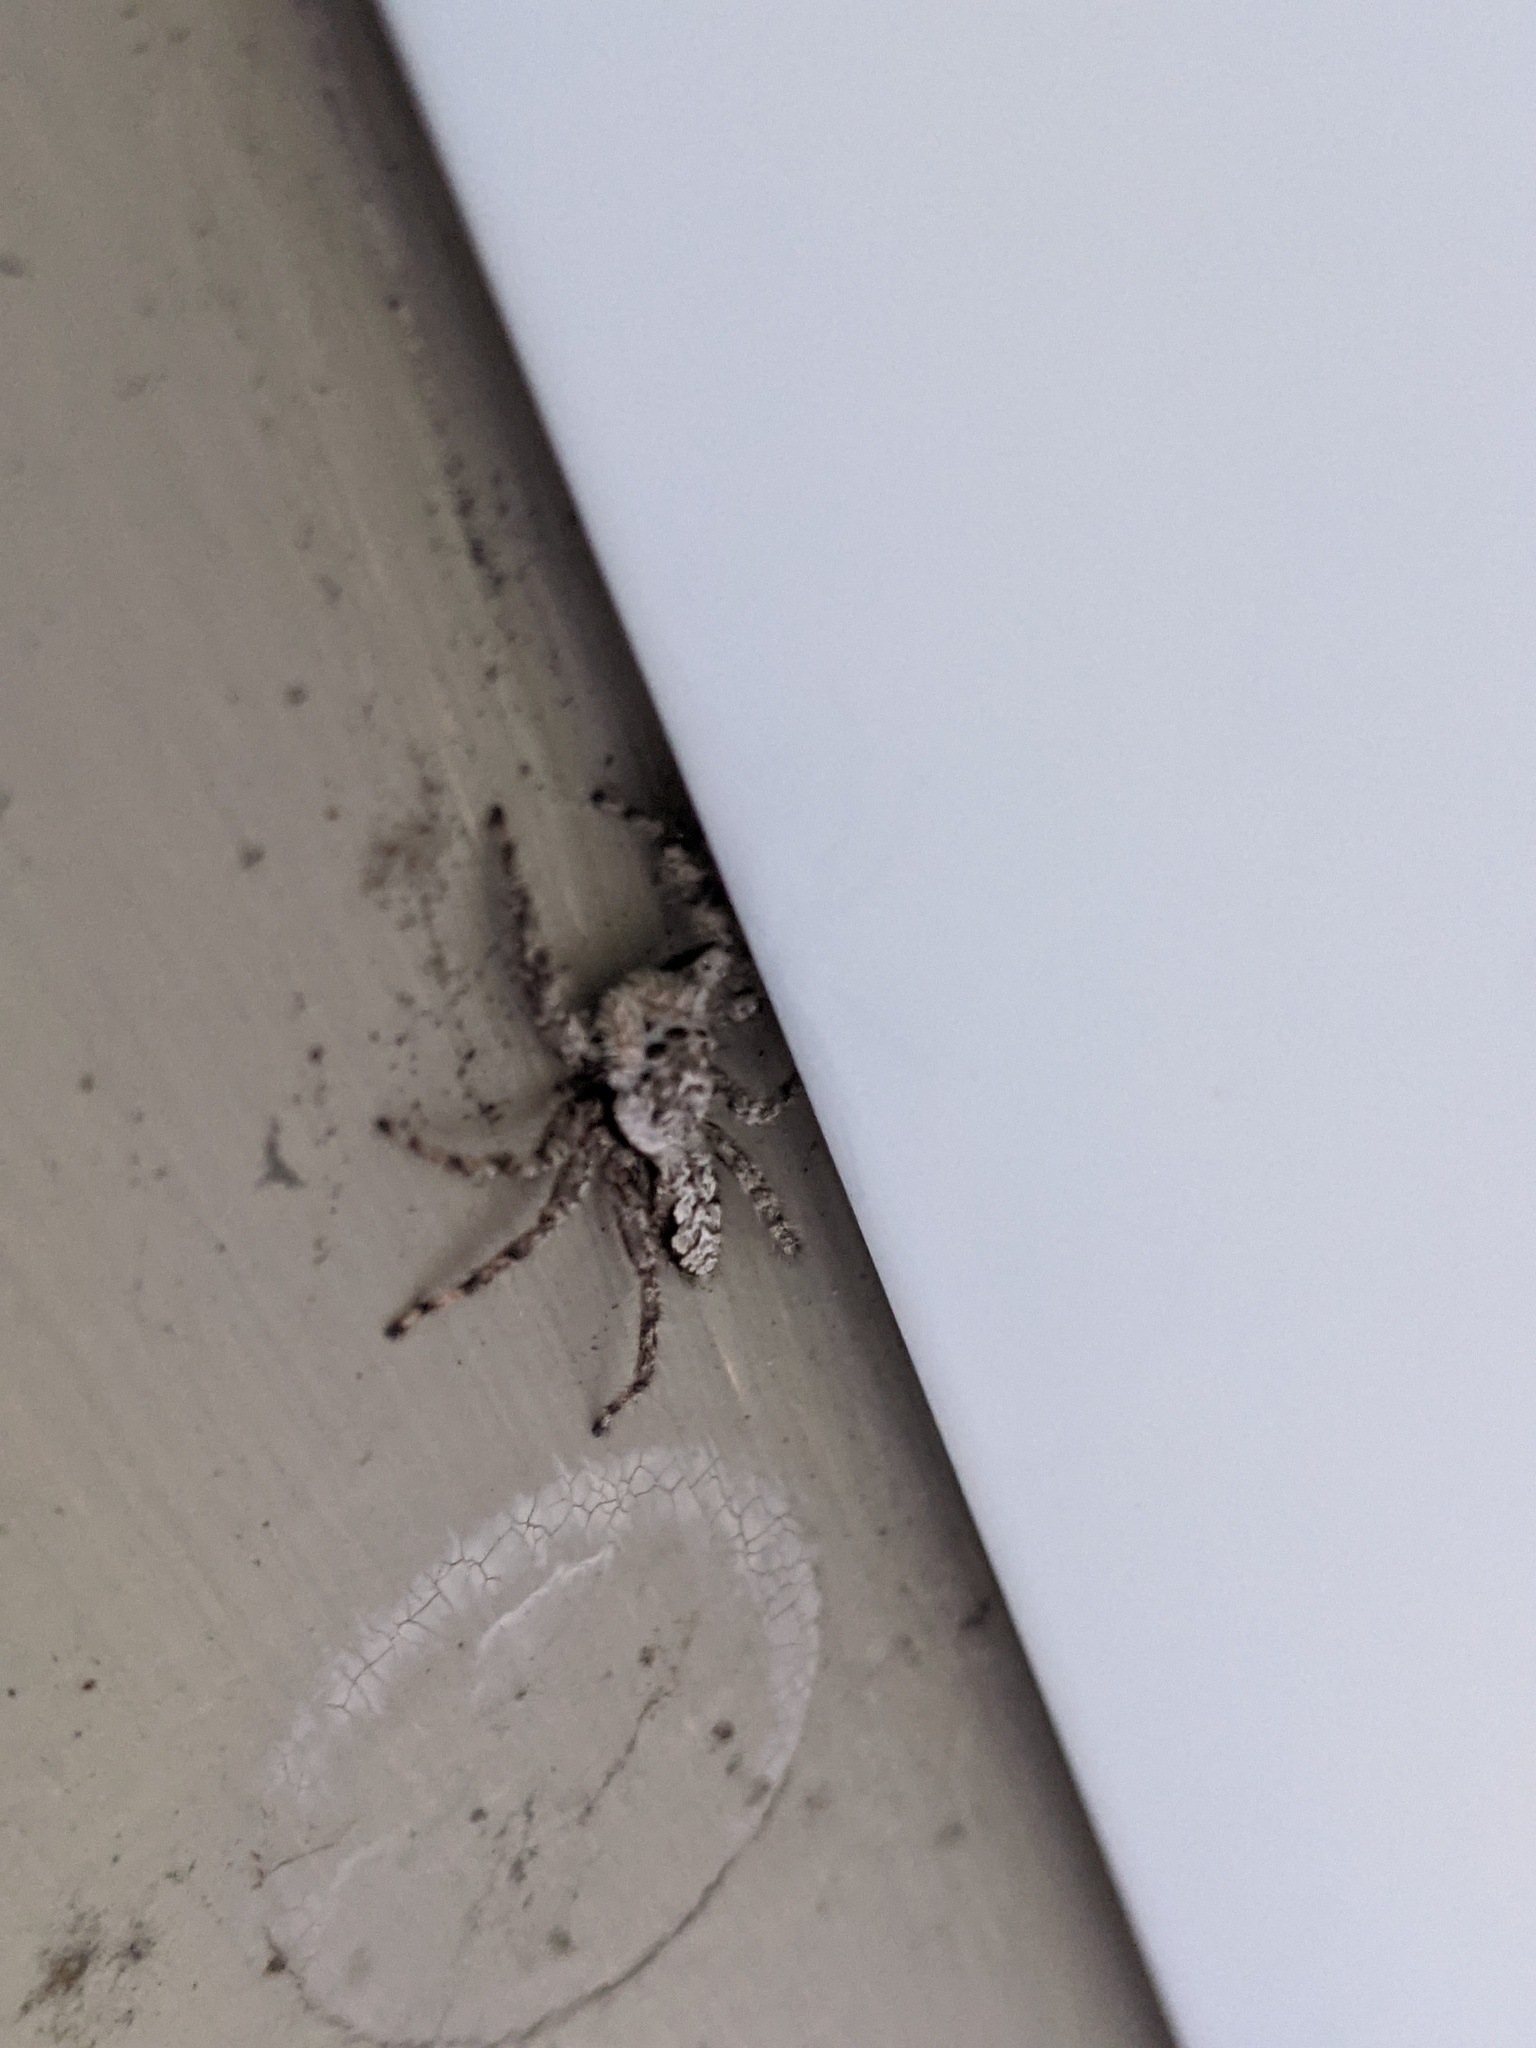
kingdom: Animalia
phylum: Arthropoda
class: Arachnida
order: Araneae
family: Salticidae
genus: Platycryptus
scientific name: Platycryptus undatus
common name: Tan jumping spider
